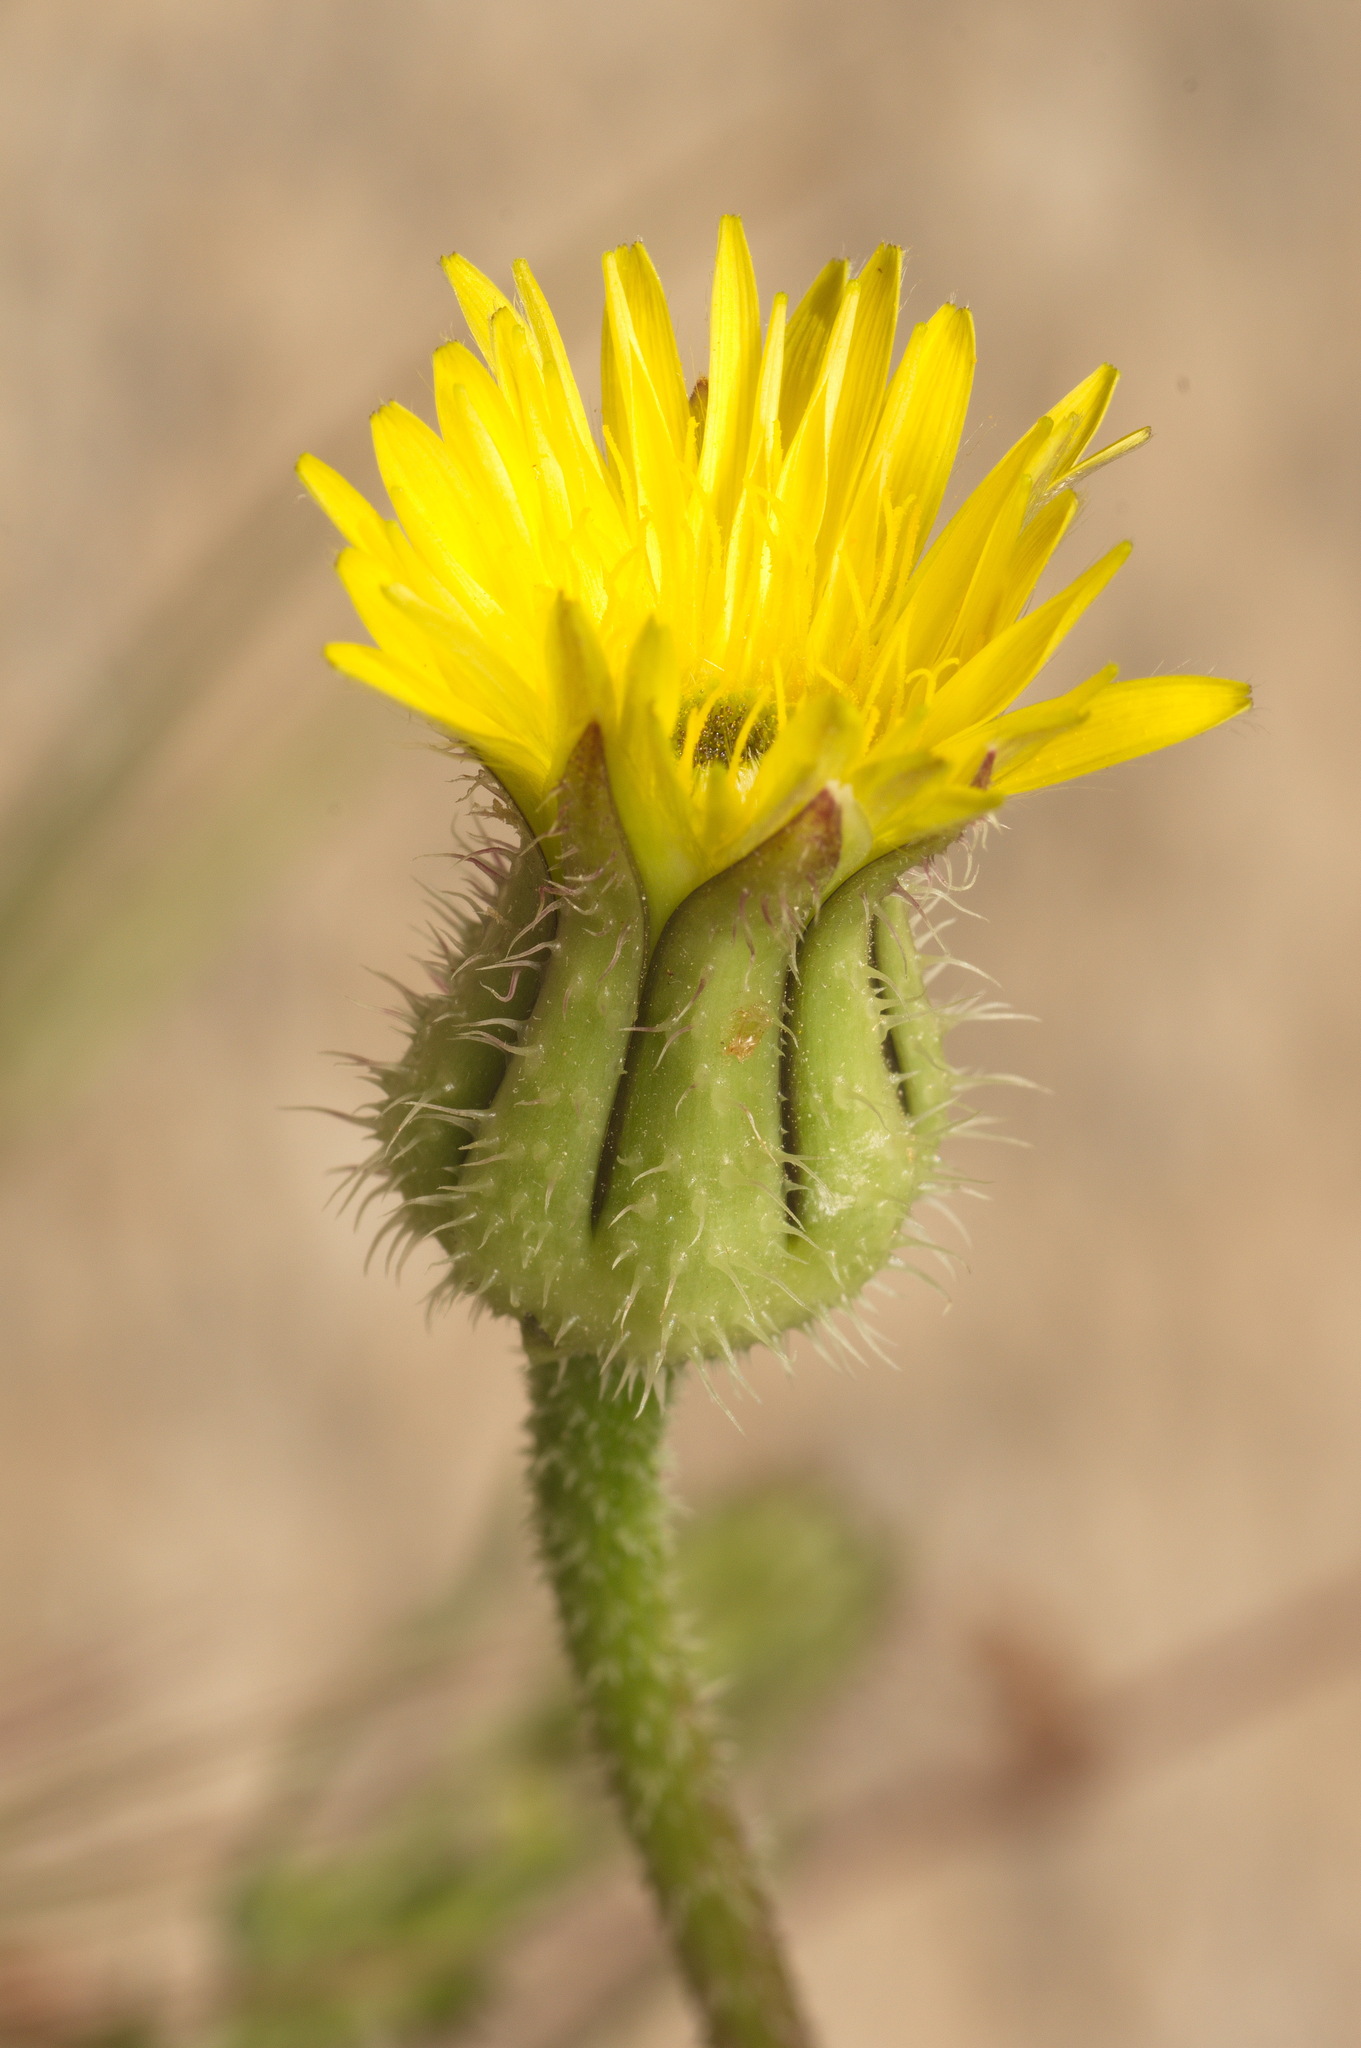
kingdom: Plantae
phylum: Tracheophyta
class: Magnoliopsida
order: Asterales
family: Asteraceae
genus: Urospermum
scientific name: Urospermum picroides
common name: False hawkbit
